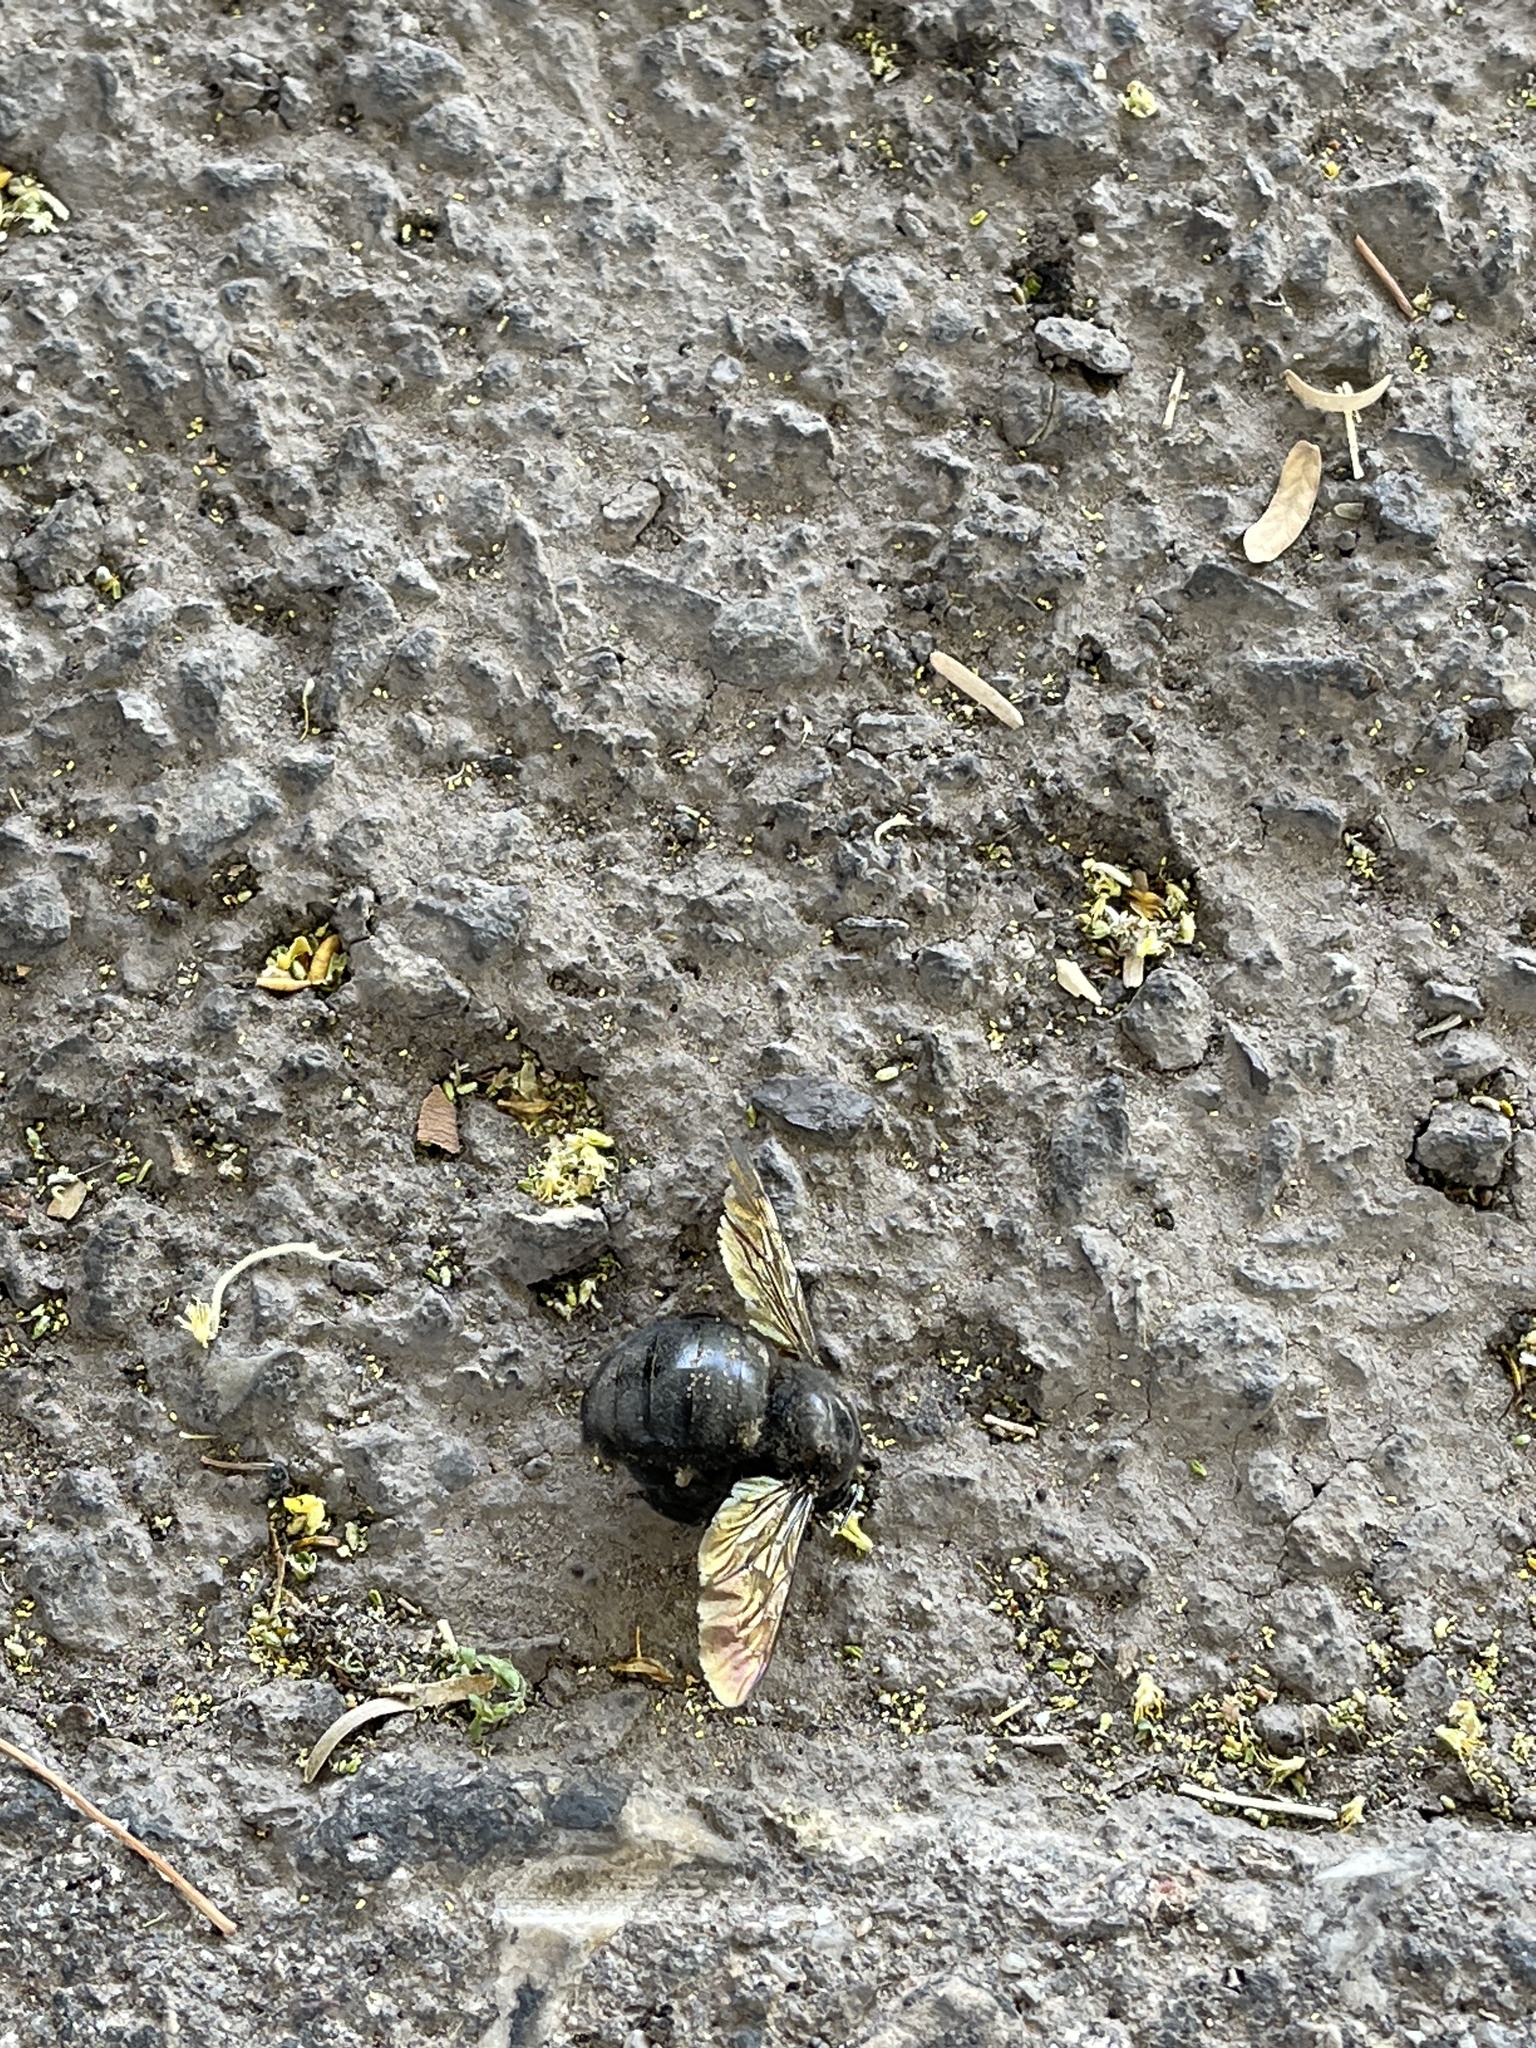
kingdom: Animalia
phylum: Arthropoda
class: Insecta
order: Hymenoptera
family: Apidae
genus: Xylocopa
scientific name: Xylocopa sonorina
